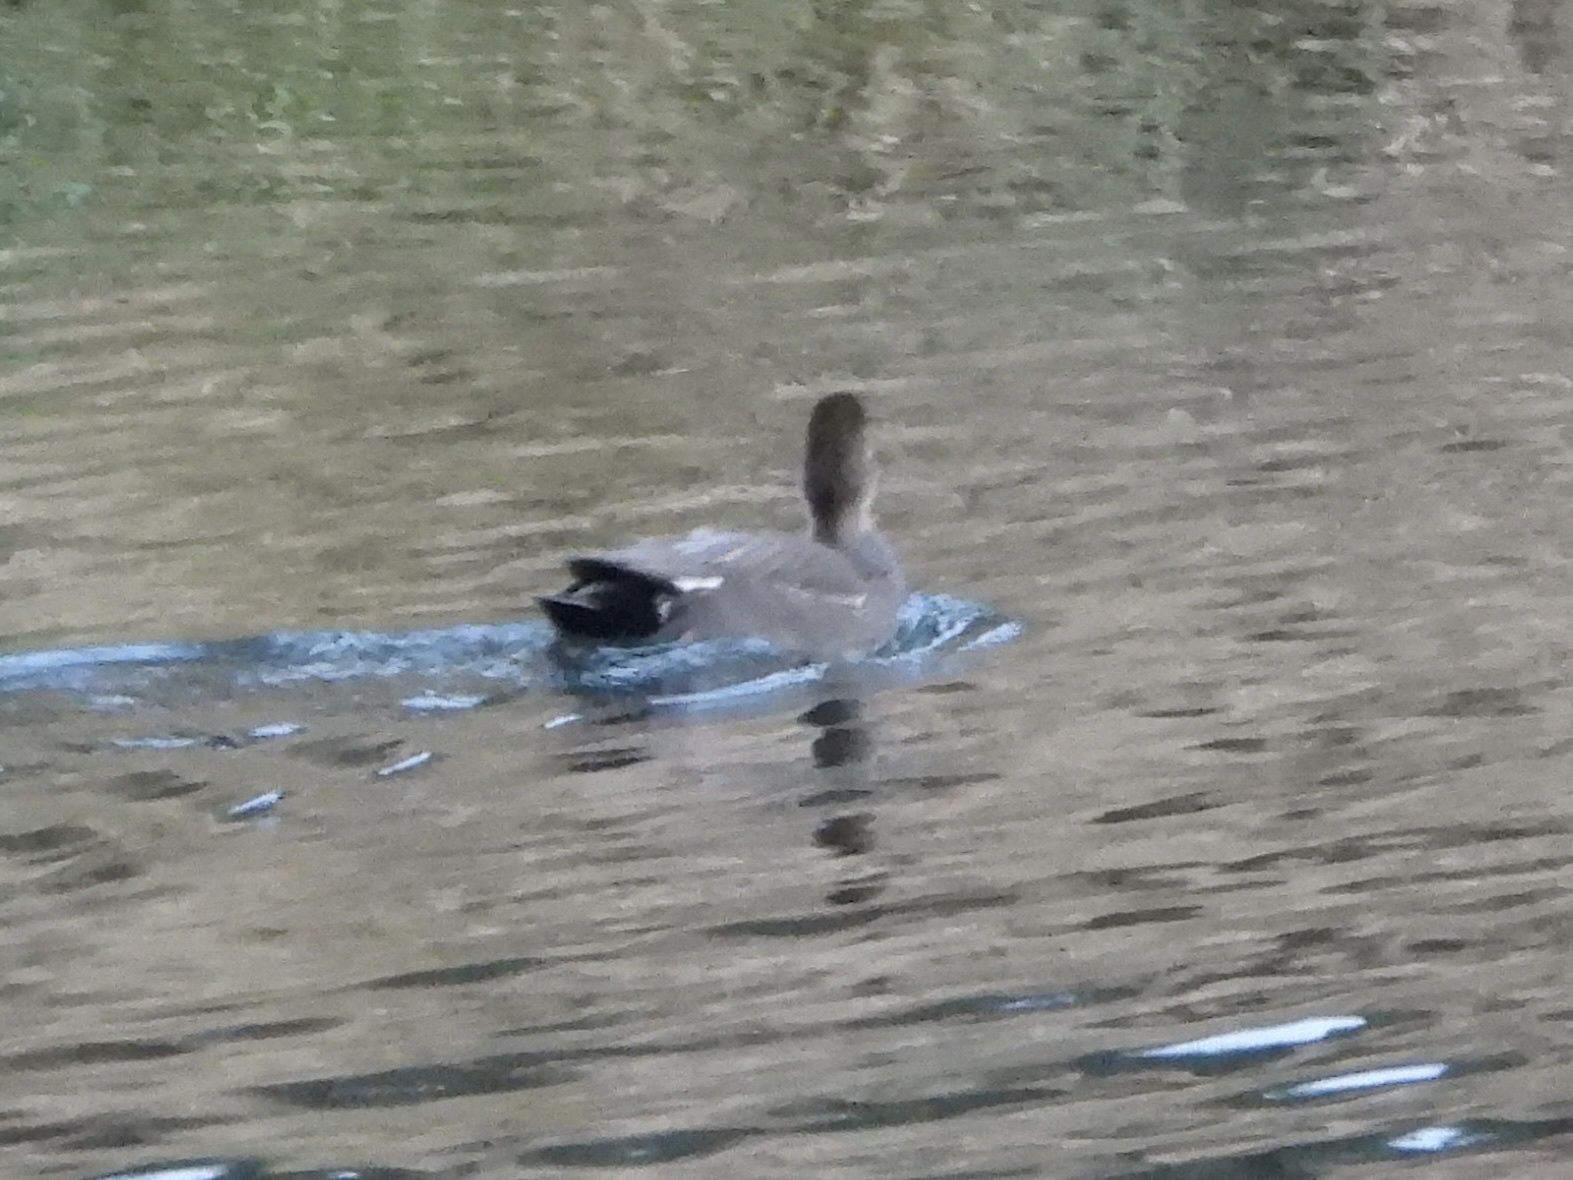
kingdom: Animalia
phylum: Chordata
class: Aves
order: Anseriformes
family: Anatidae
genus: Mareca
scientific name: Mareca strepera
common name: Gadwall
